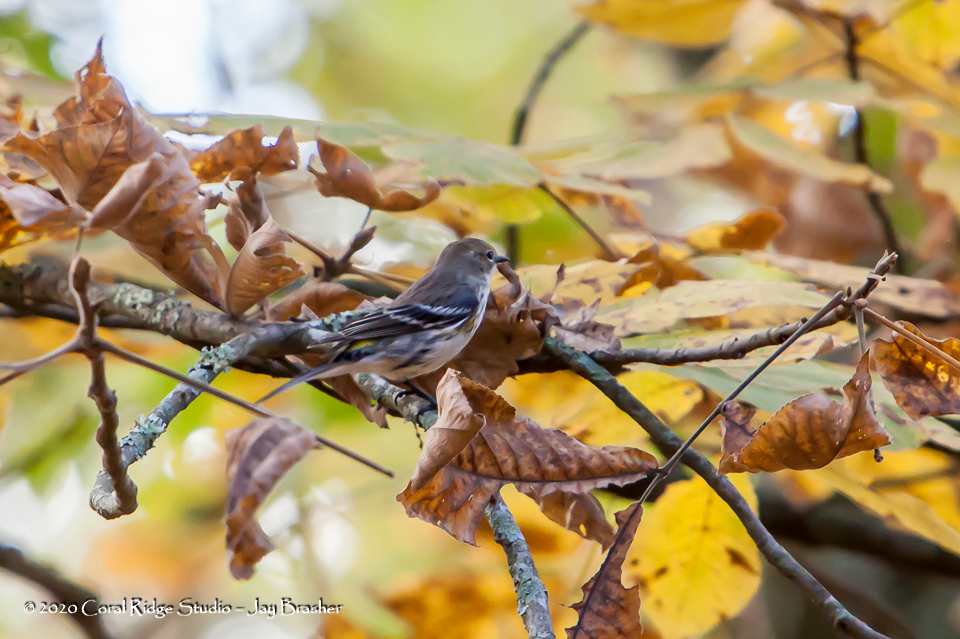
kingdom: Animalia
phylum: Chordata
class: Aves
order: Passeriformes
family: Parulidae
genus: Setophaga
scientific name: Setophaga coronata
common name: Myrtle warbler
